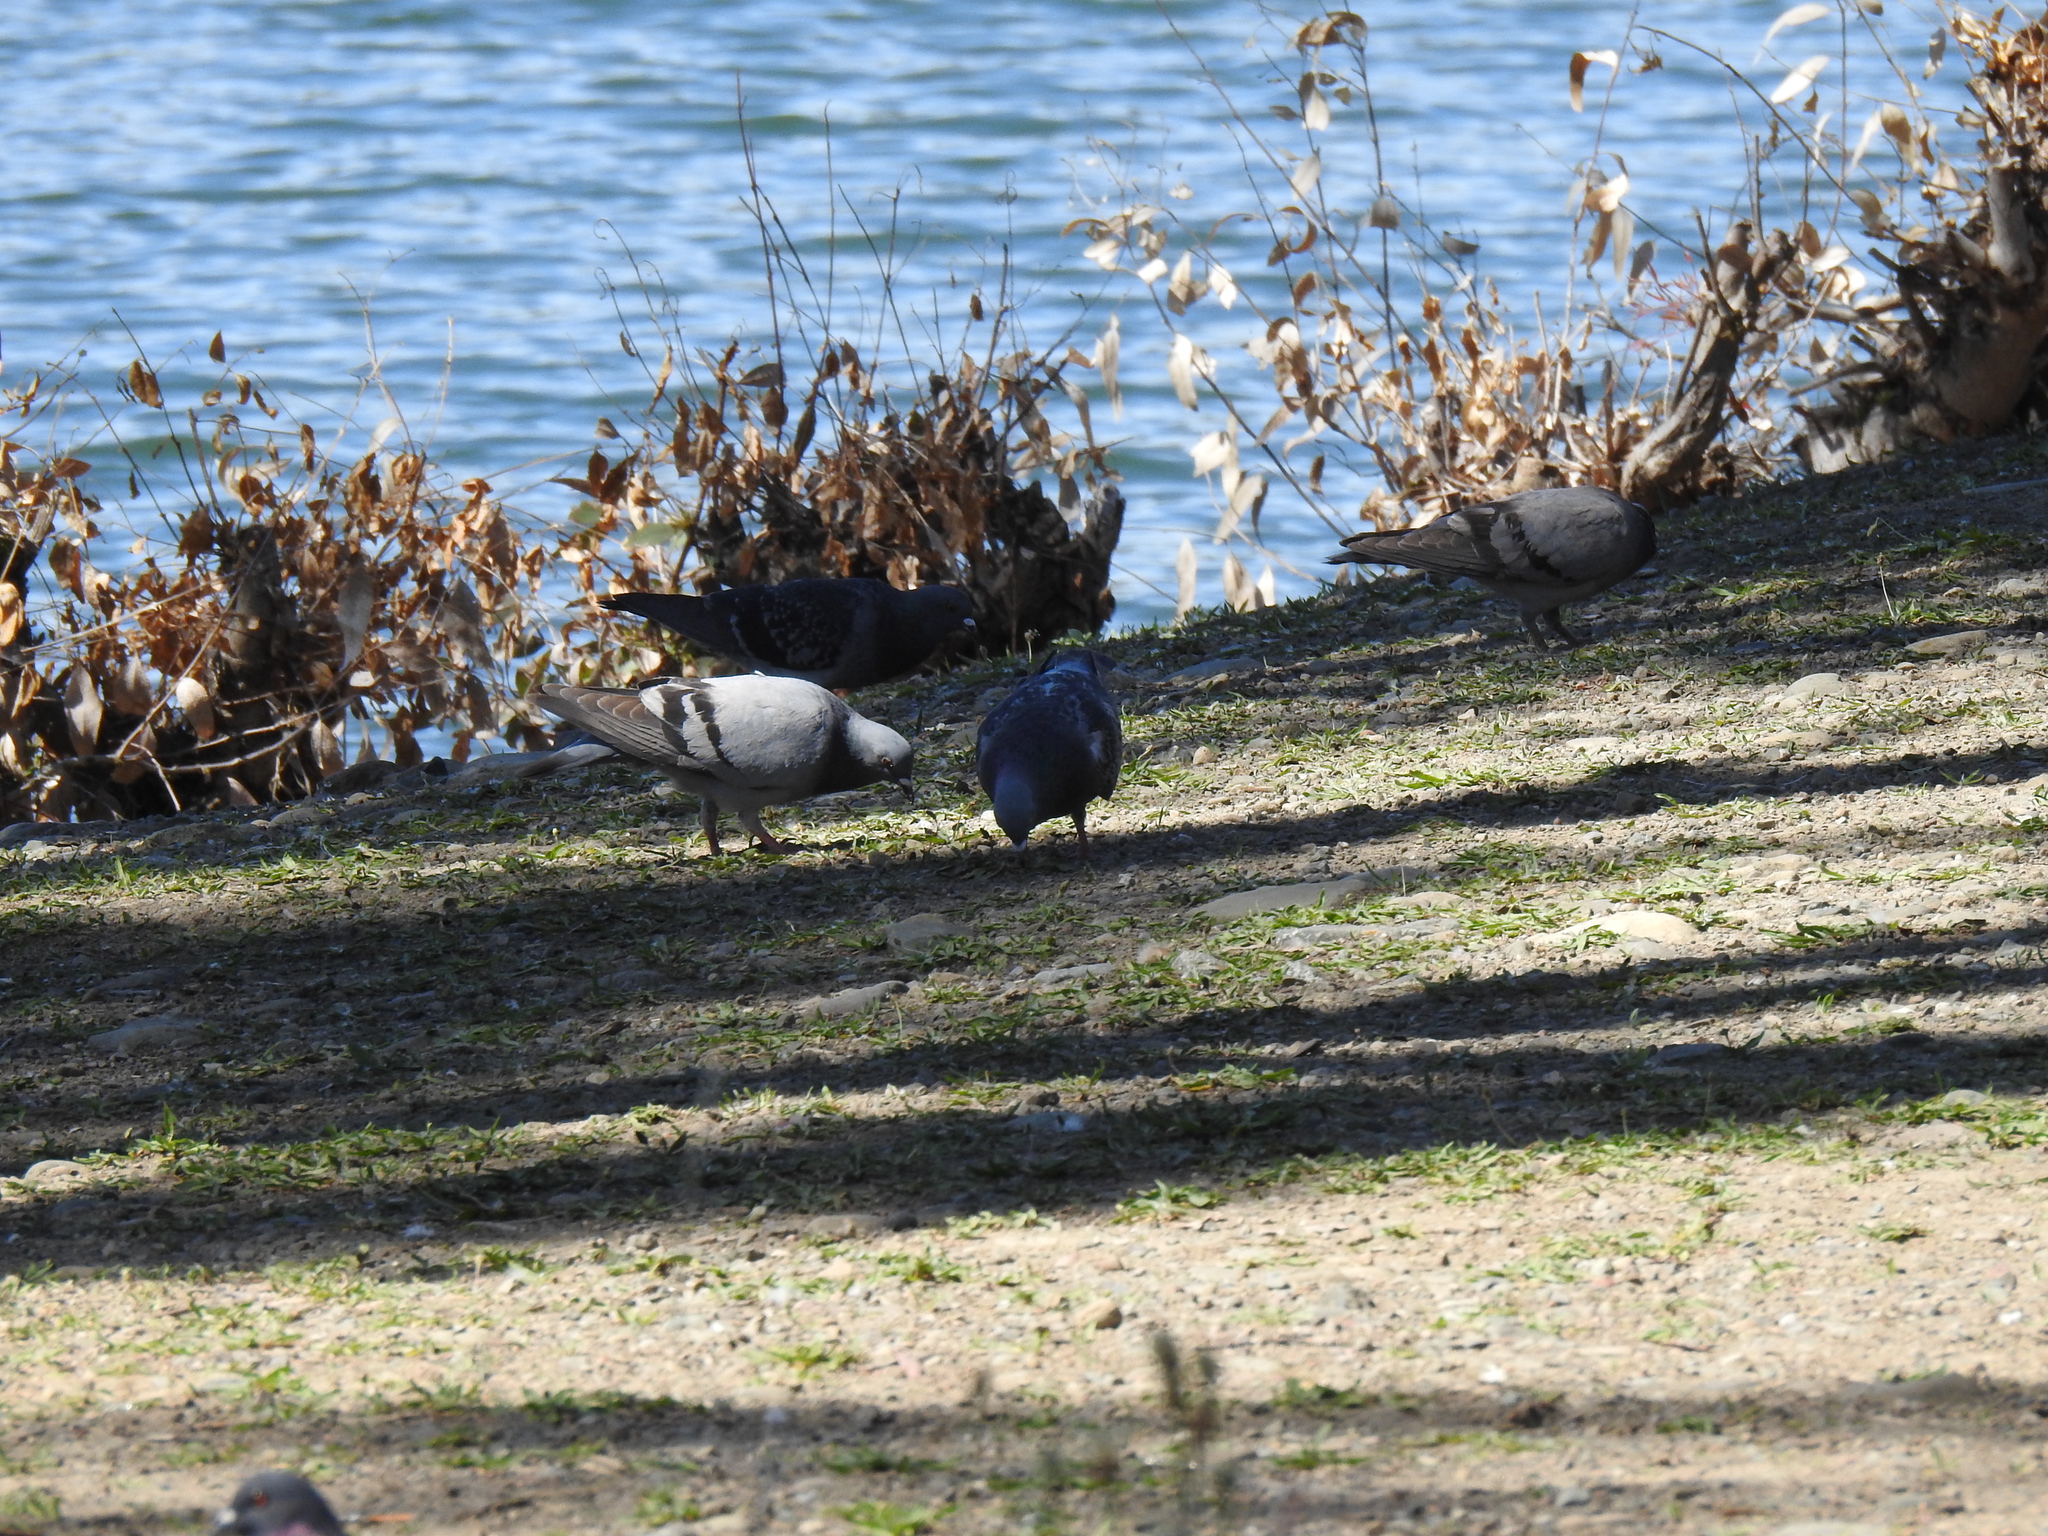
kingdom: Animalia
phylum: Chordata
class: Aves
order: Columbiformes
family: Columbidae
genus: Columba
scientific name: Columba livia
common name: Rock pigeon
